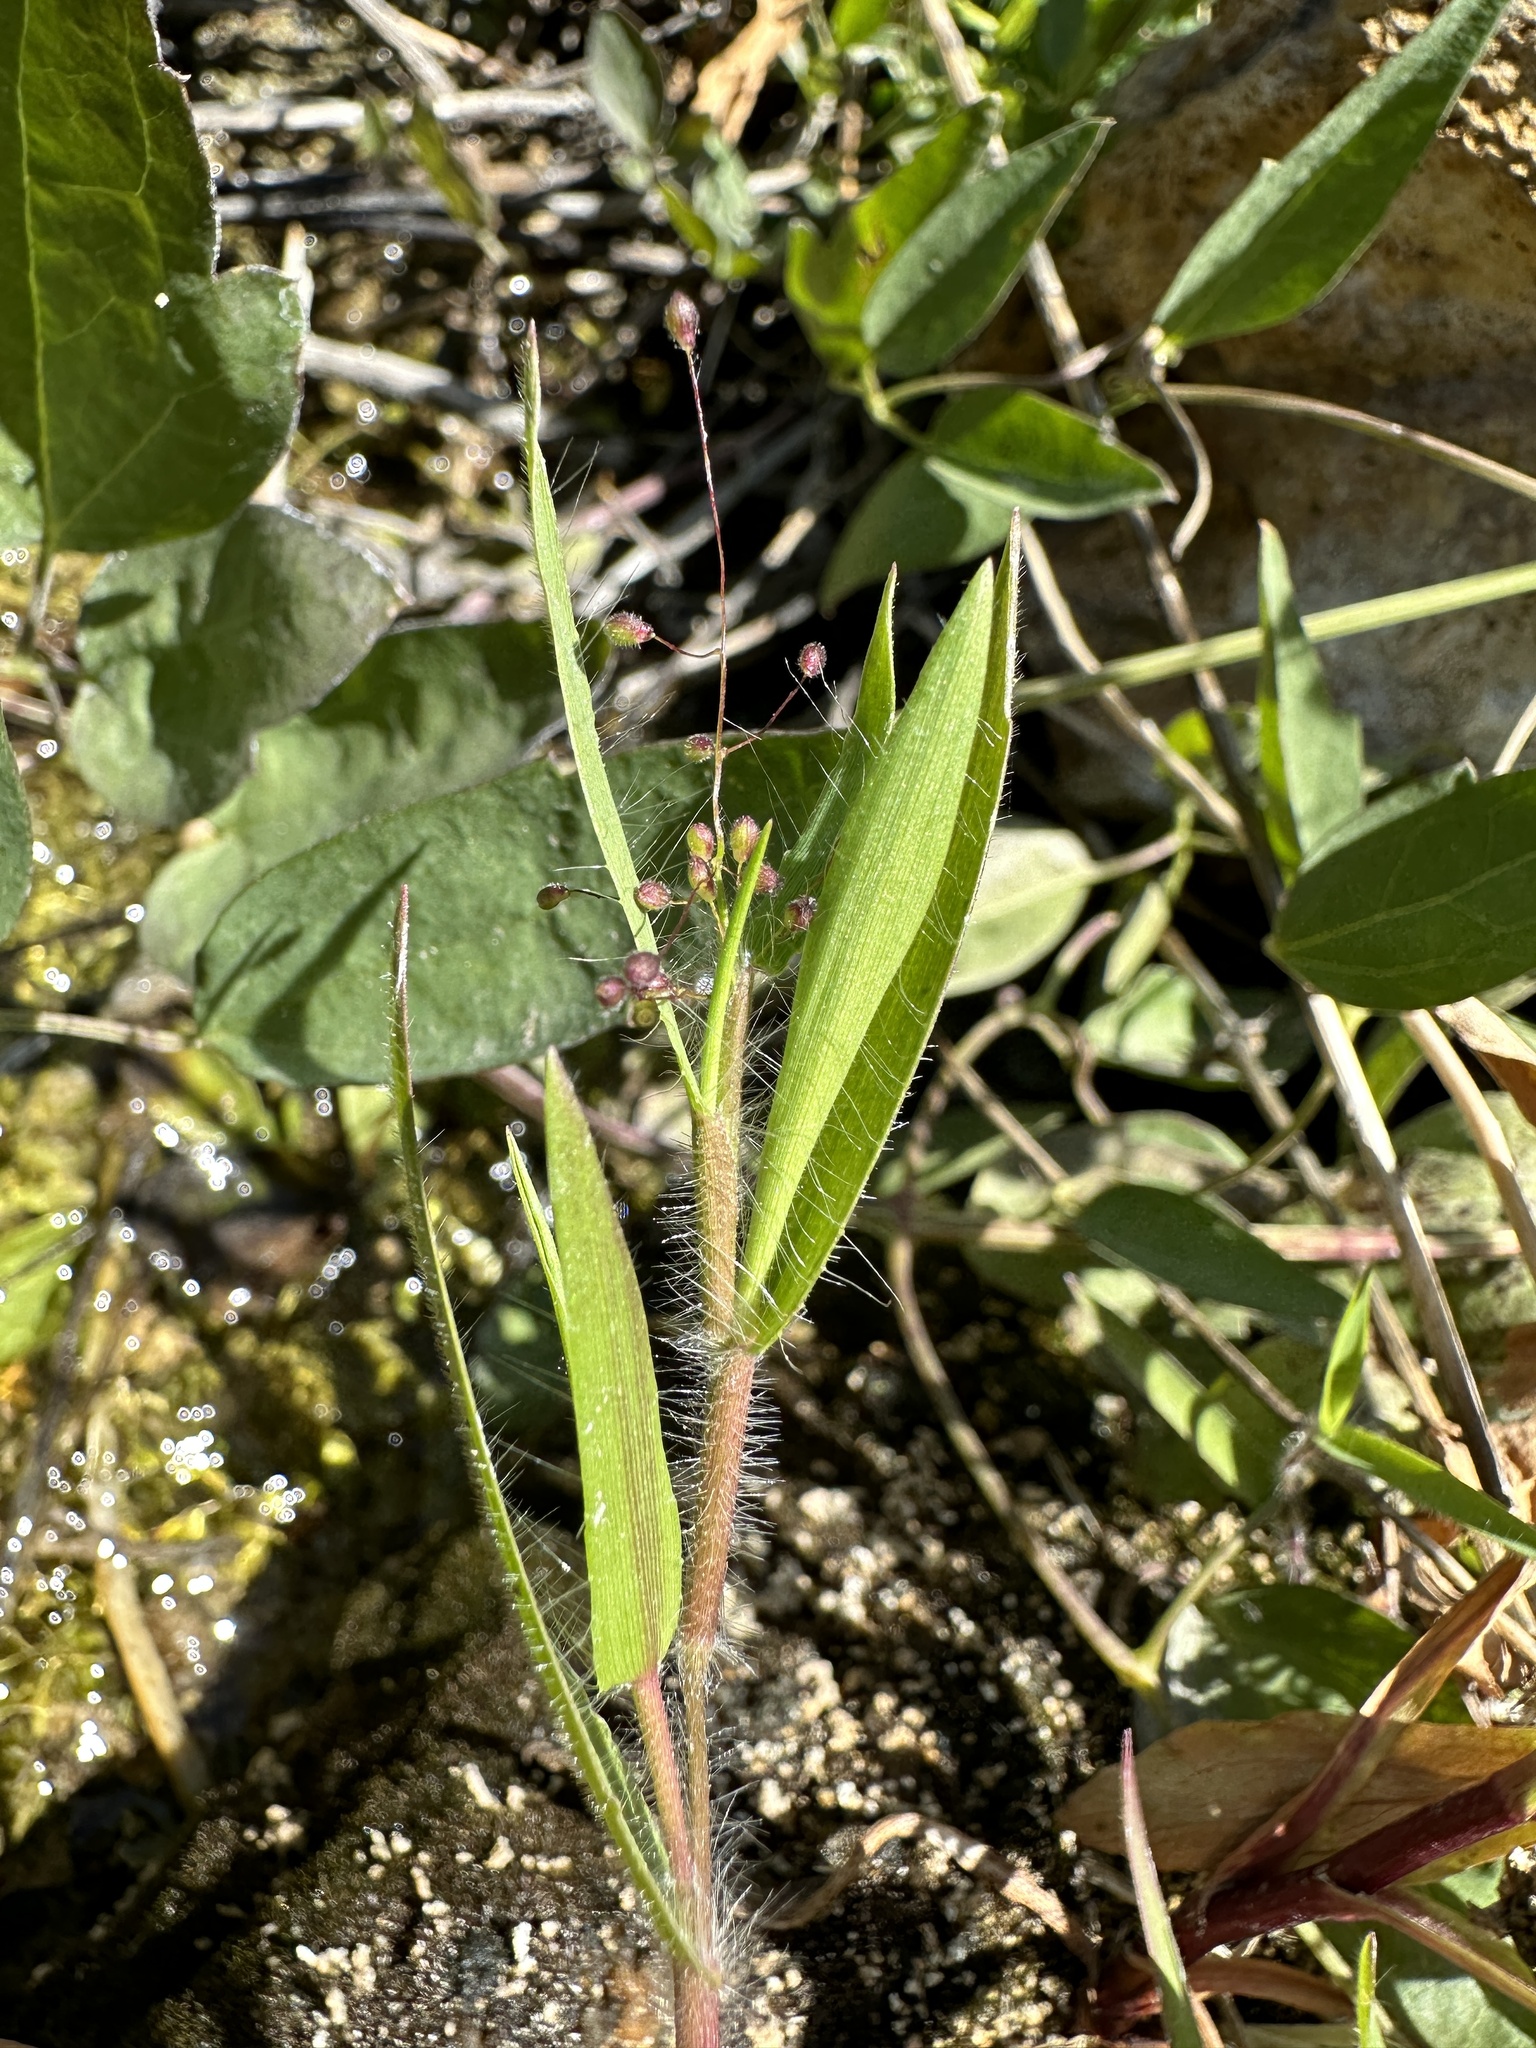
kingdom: Plantae
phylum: Tracheophyta
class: Liliopsida
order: Poales
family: Poaceae
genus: Dichanthelium
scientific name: Dichanthelium lanuginosum
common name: Woolly panicgrass
